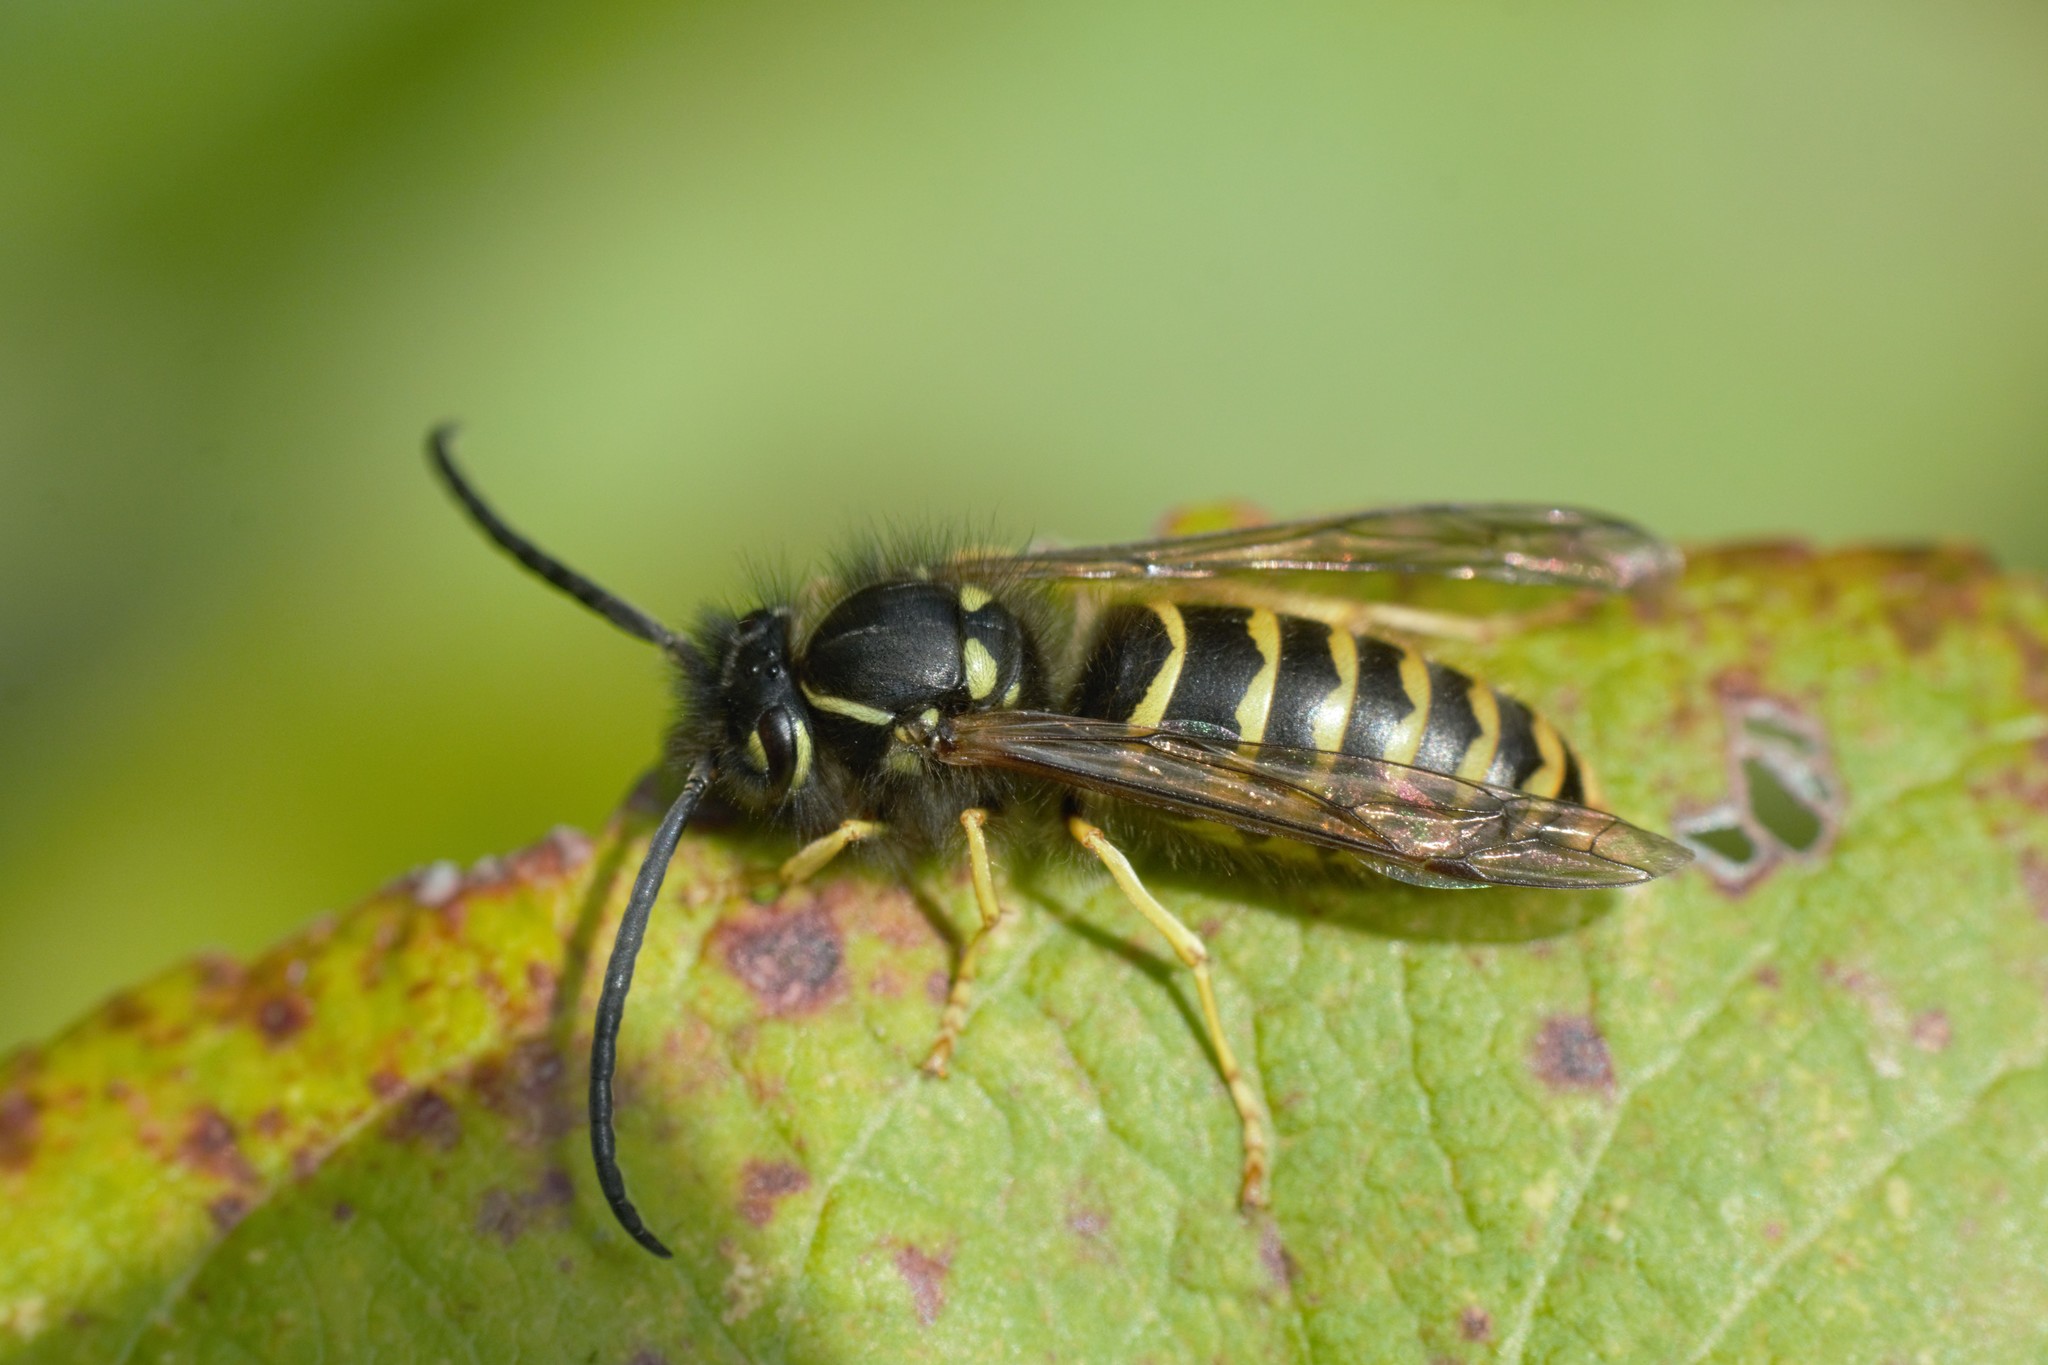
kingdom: Animalia
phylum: Arthropoda
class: Insecta
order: Hymenoptera
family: Vespidae
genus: Vespula
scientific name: Vespula alascensis
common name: Alaska yellowjacket
